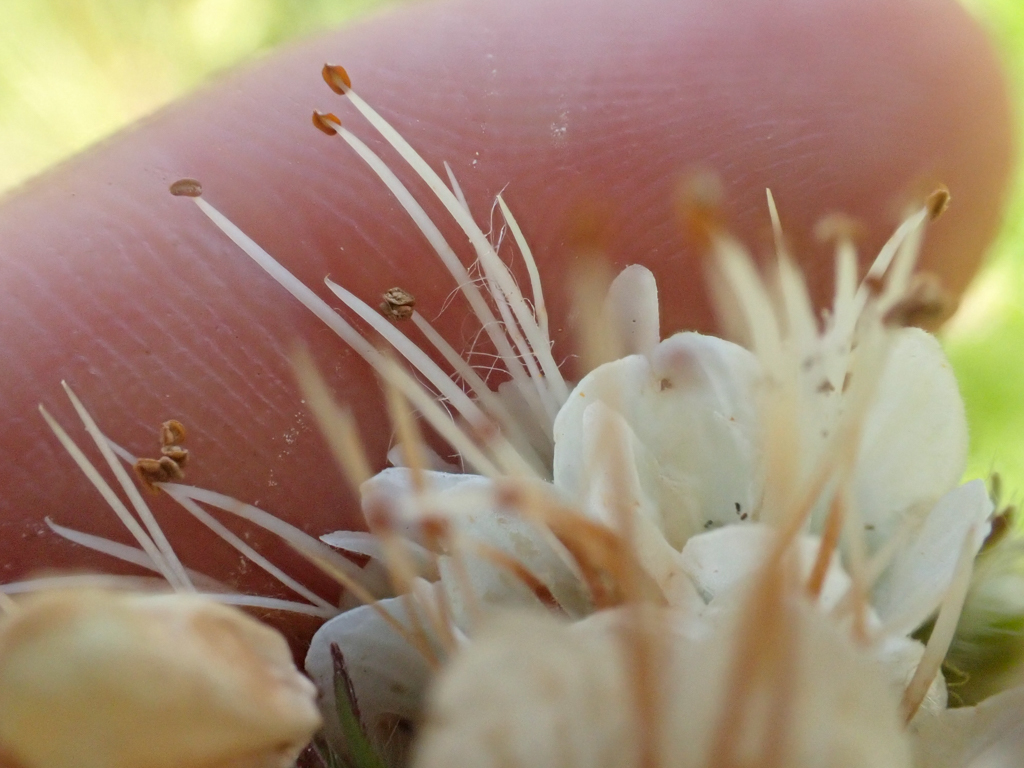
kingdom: Plantae
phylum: Tracheophyta
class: Magnoliopsida
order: Boraginales
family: Hydrophyllaceae
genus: Phacelia
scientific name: Phacelia egena
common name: Rock phacelia
